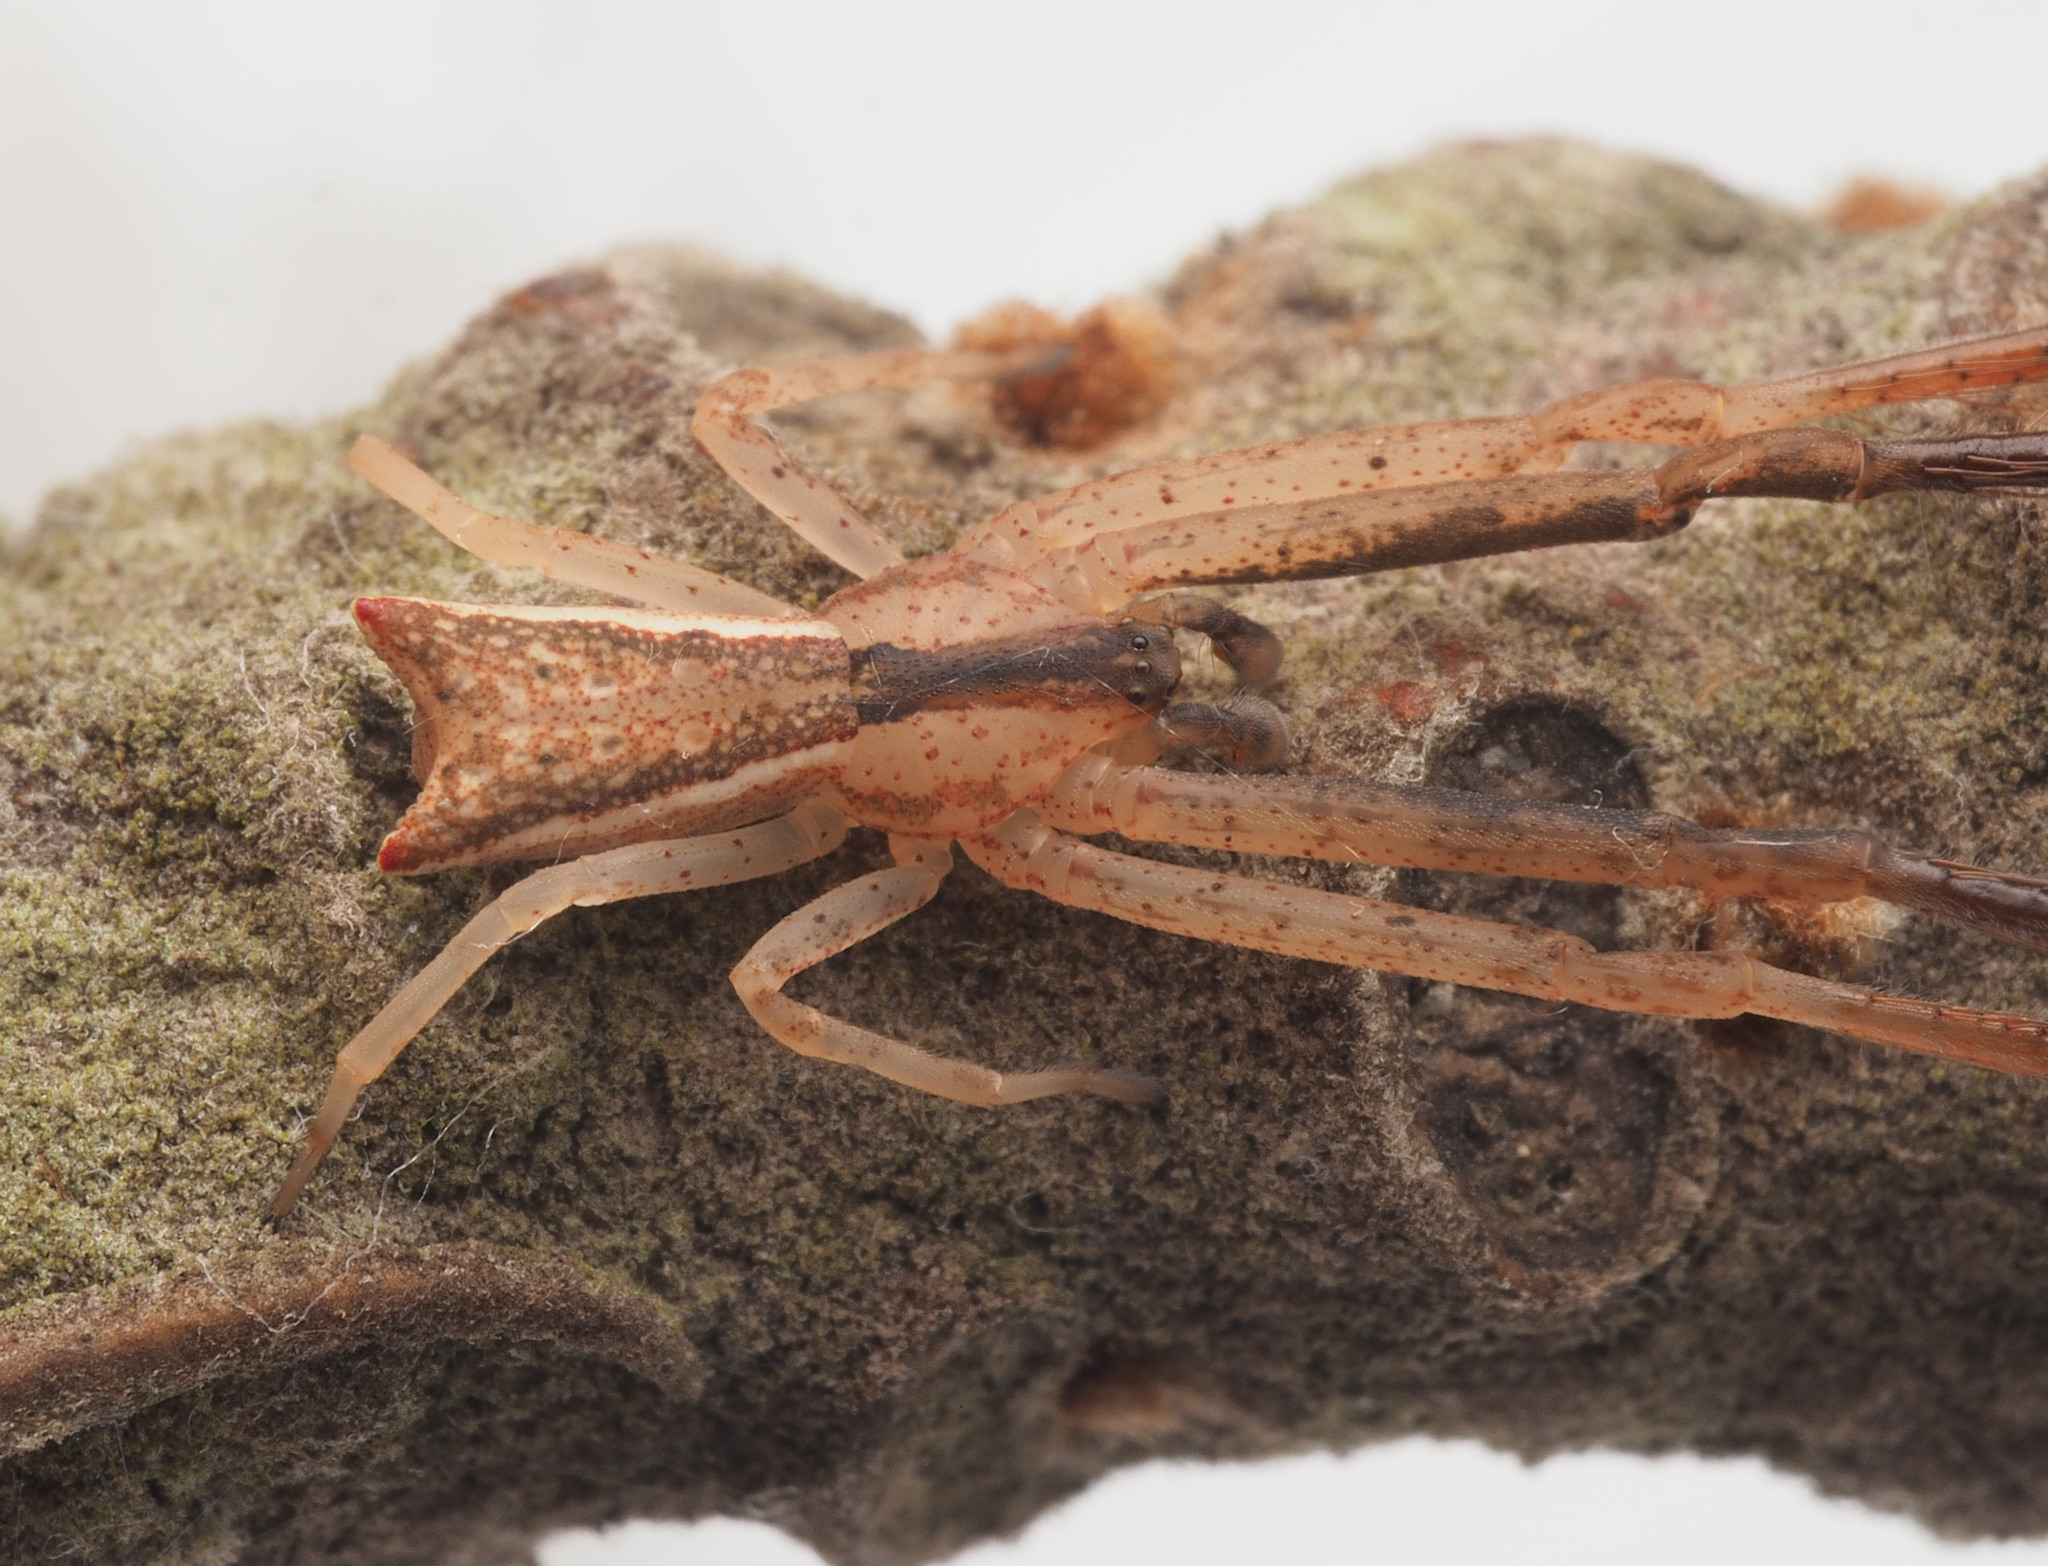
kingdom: Animalia
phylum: Arthropoda
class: Arachnida
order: Araneae
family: Thomisidae
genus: Sidymella
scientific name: Sidymella longipes
